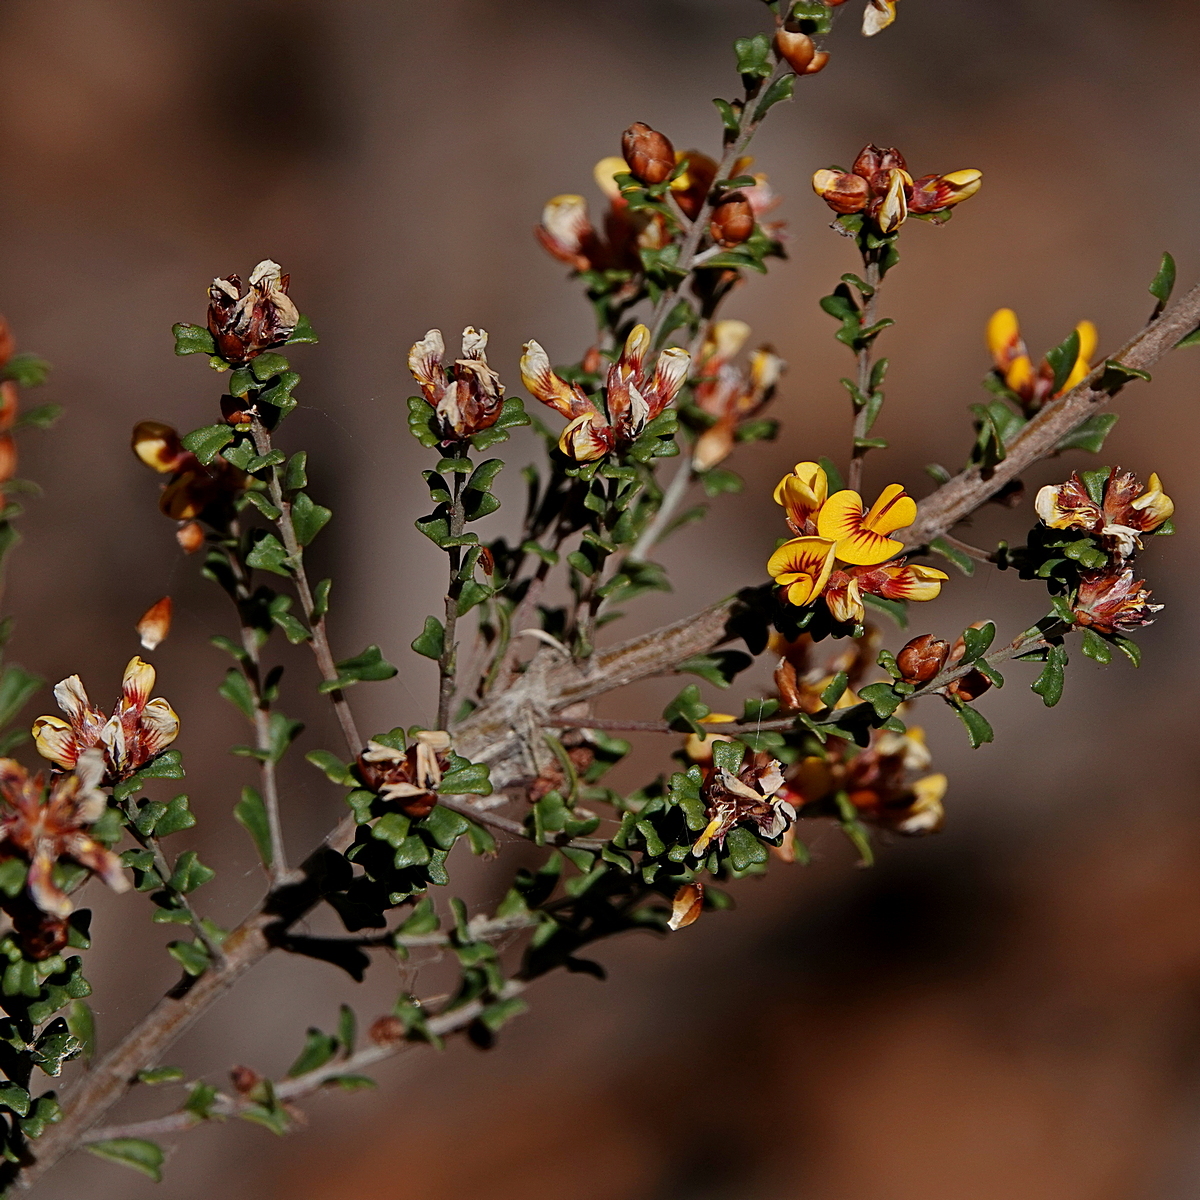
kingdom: Plantae
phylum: Tracheophyta
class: Magnoliopsida
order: Fabales
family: Fabaceae
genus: Pultenaea
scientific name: Pultenaea retusa
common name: Blunt bush-pea
